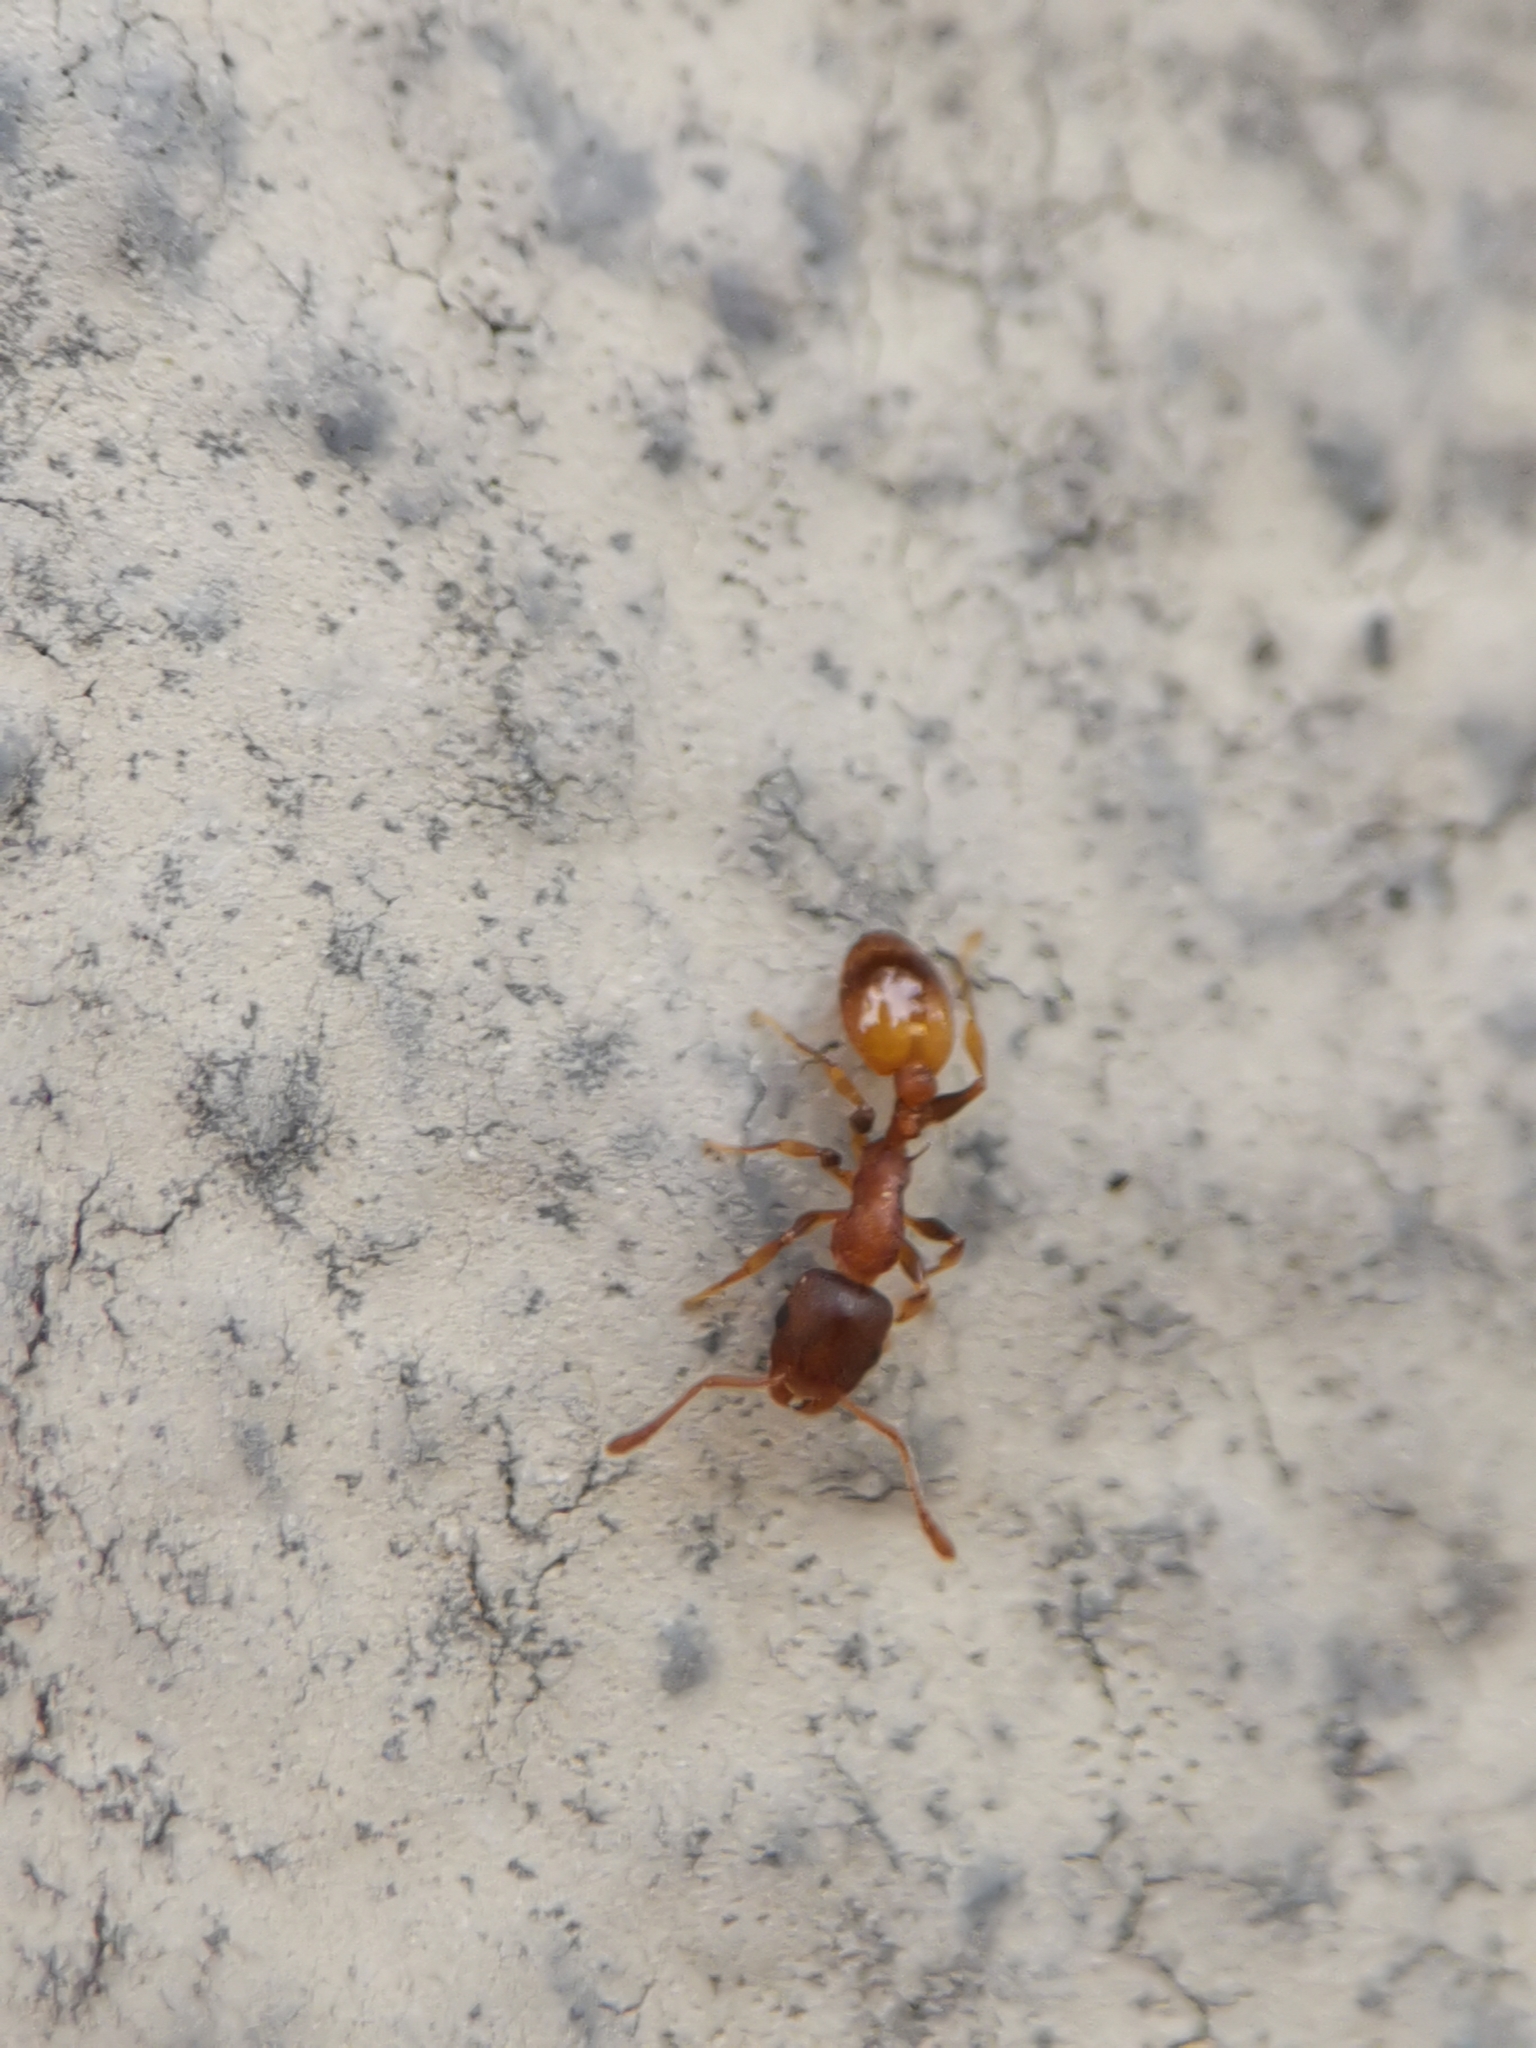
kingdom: Animalia
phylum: Arthropoda
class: Insecta
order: Hymenoptera
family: Formicidae
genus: Leptothorax
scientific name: Leptothorax affinis
